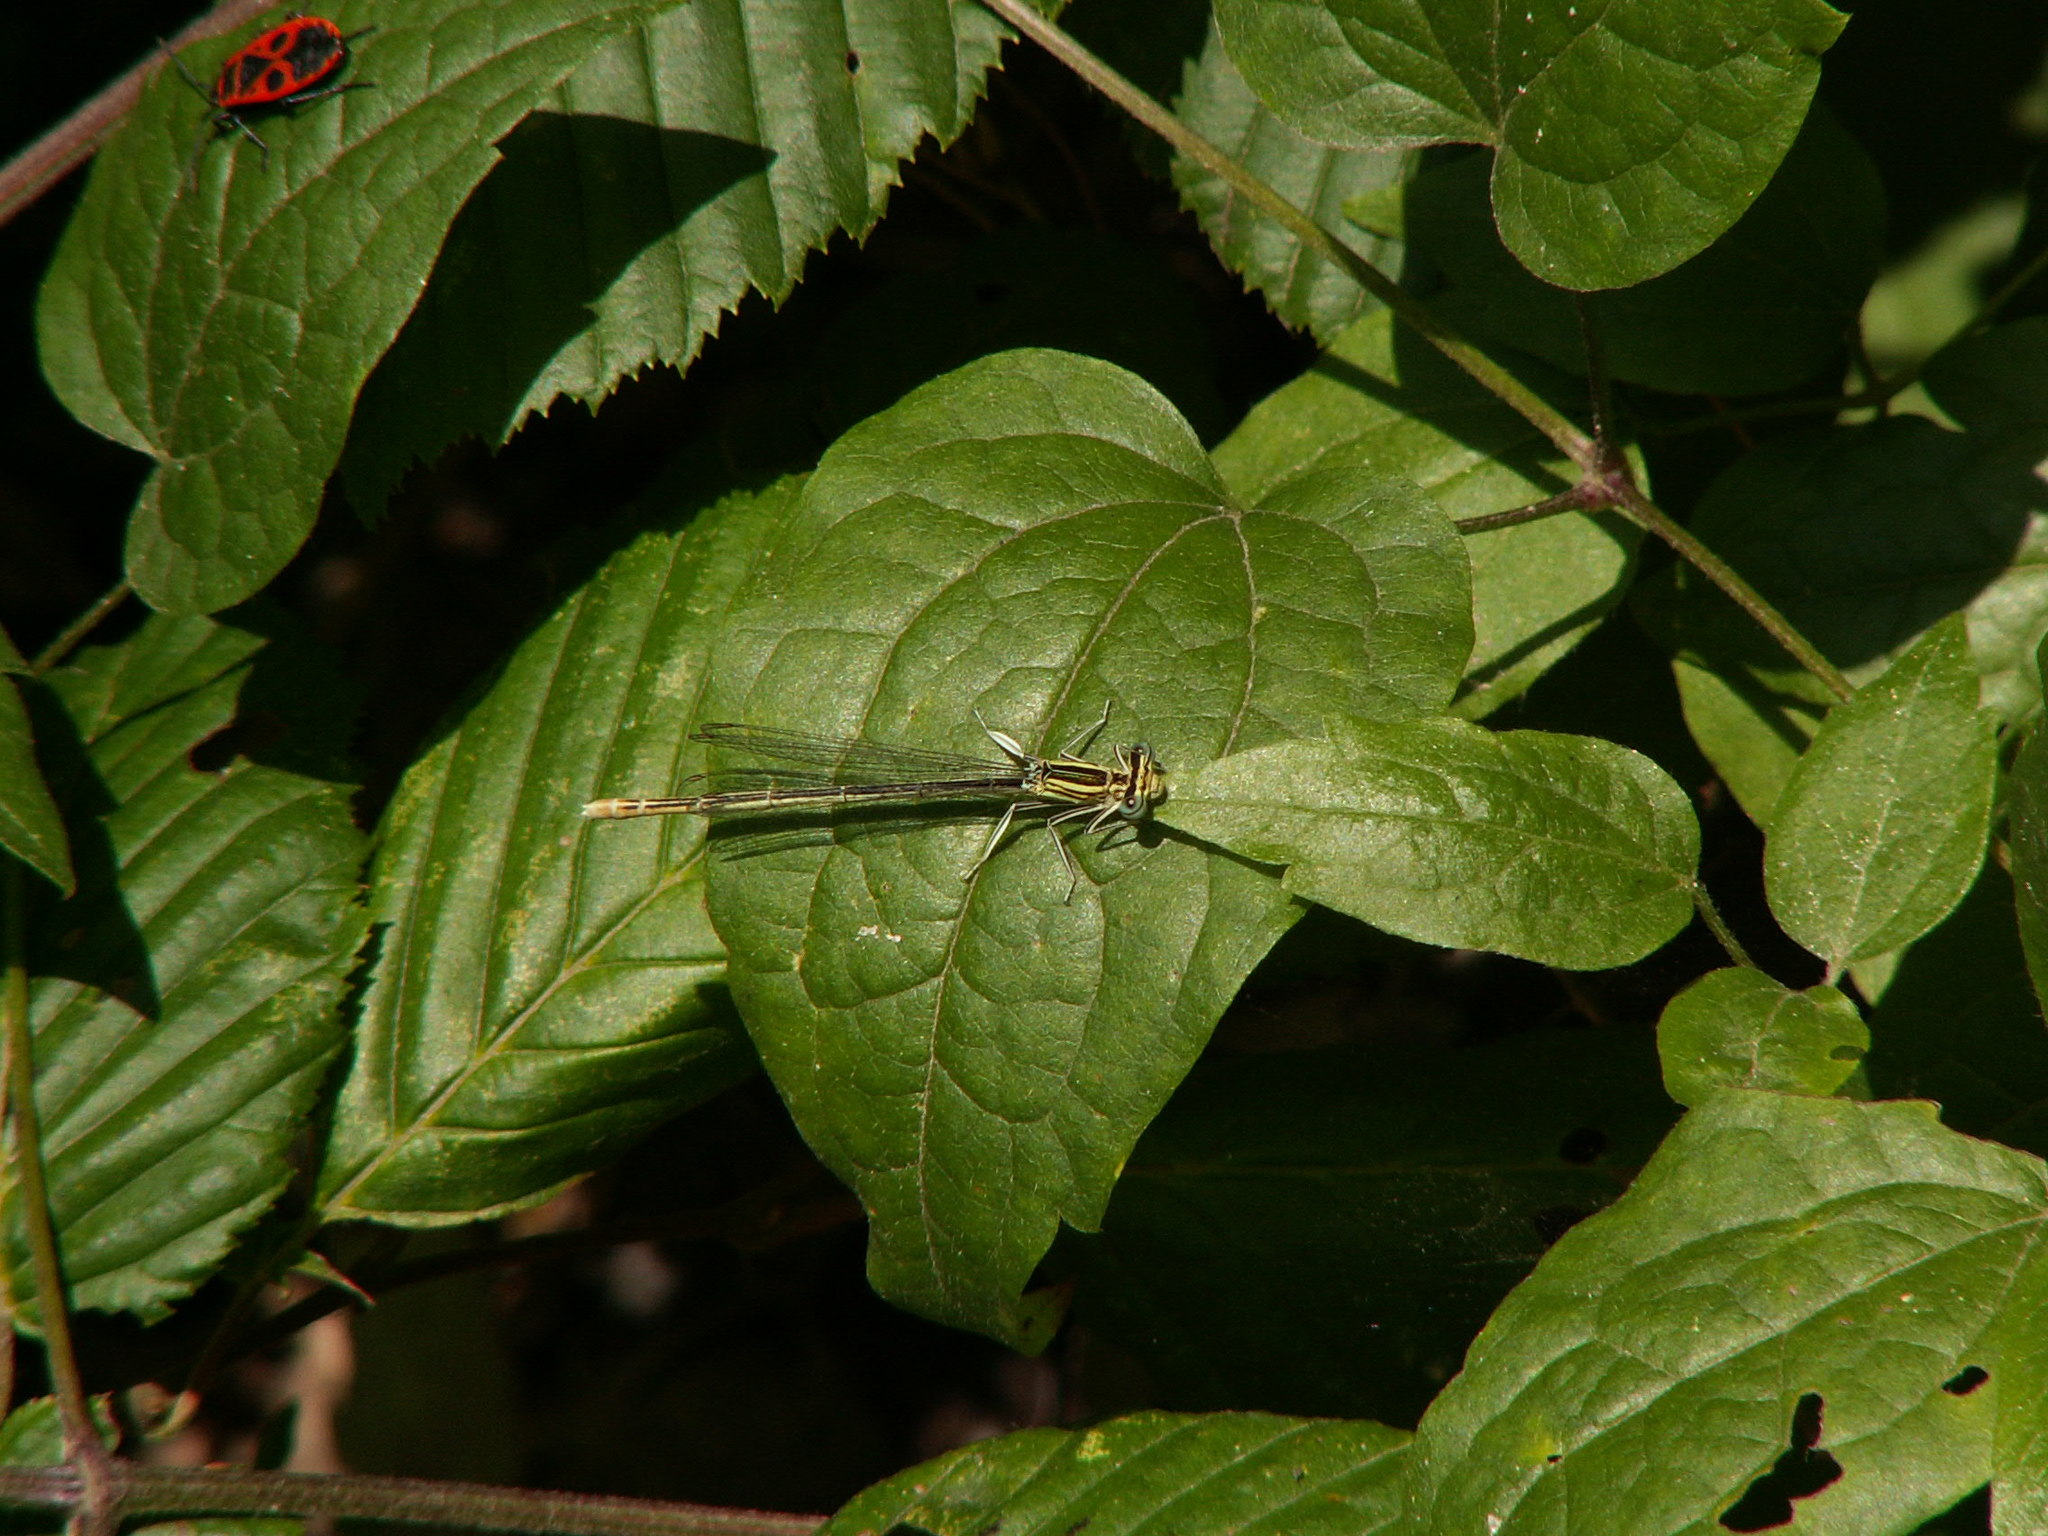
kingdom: Animalia
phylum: Arthropoda
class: Insecta
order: Odonata
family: Platycnemididae
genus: Platycnemis
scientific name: Platycnemis pennipes
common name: White-legged damselfly
